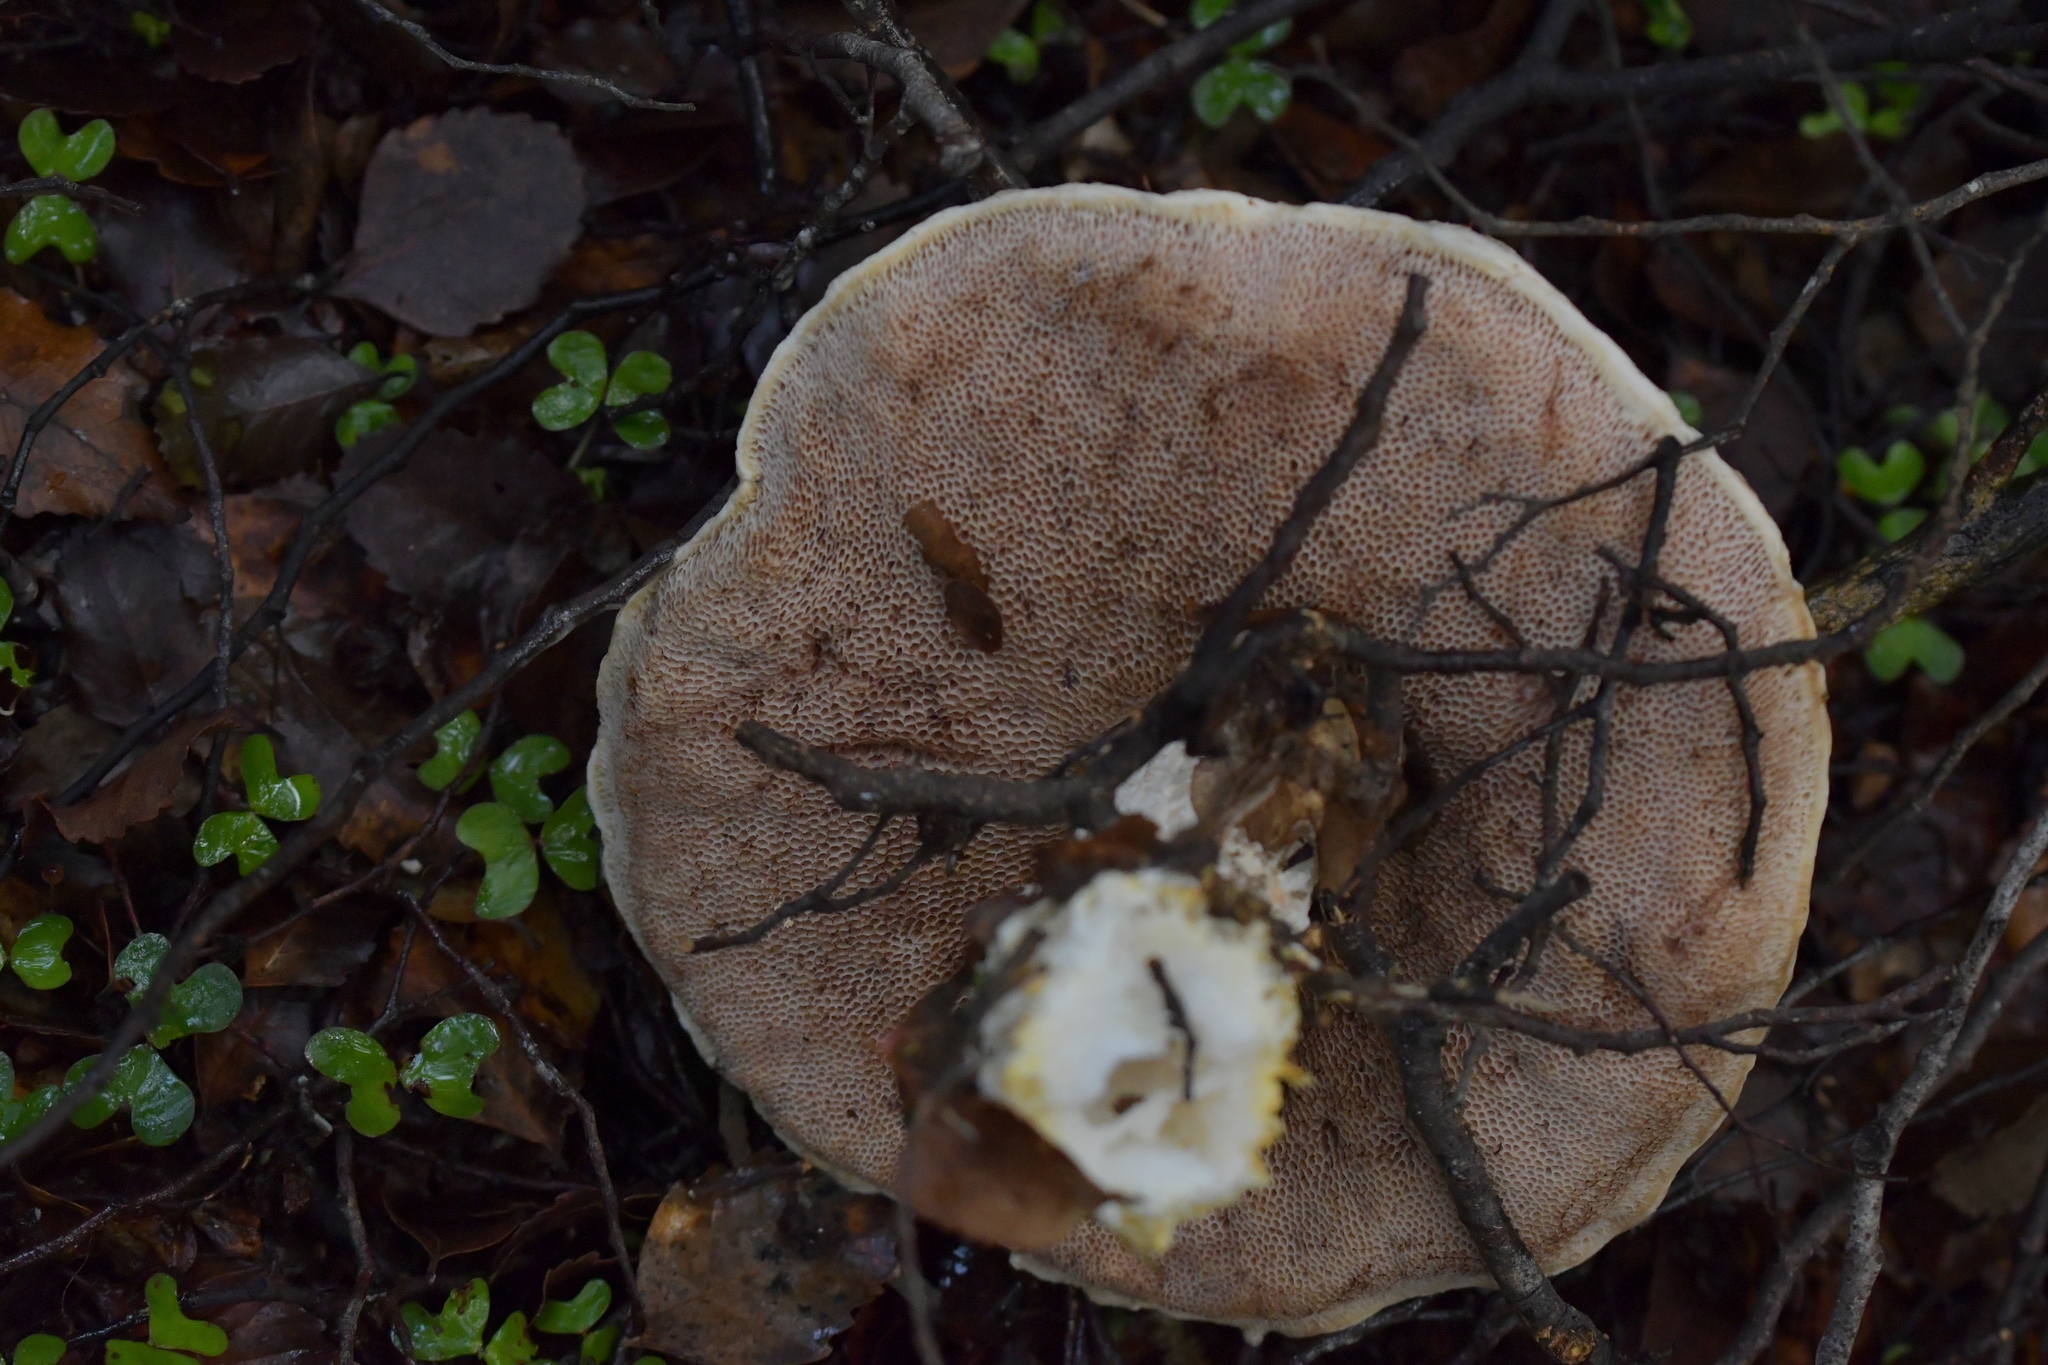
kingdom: Fungi
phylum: Basidiomycota
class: Agaricomycetes
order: Boletales
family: Boletaceae
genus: Fistulinella
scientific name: Fistulinella nivea
